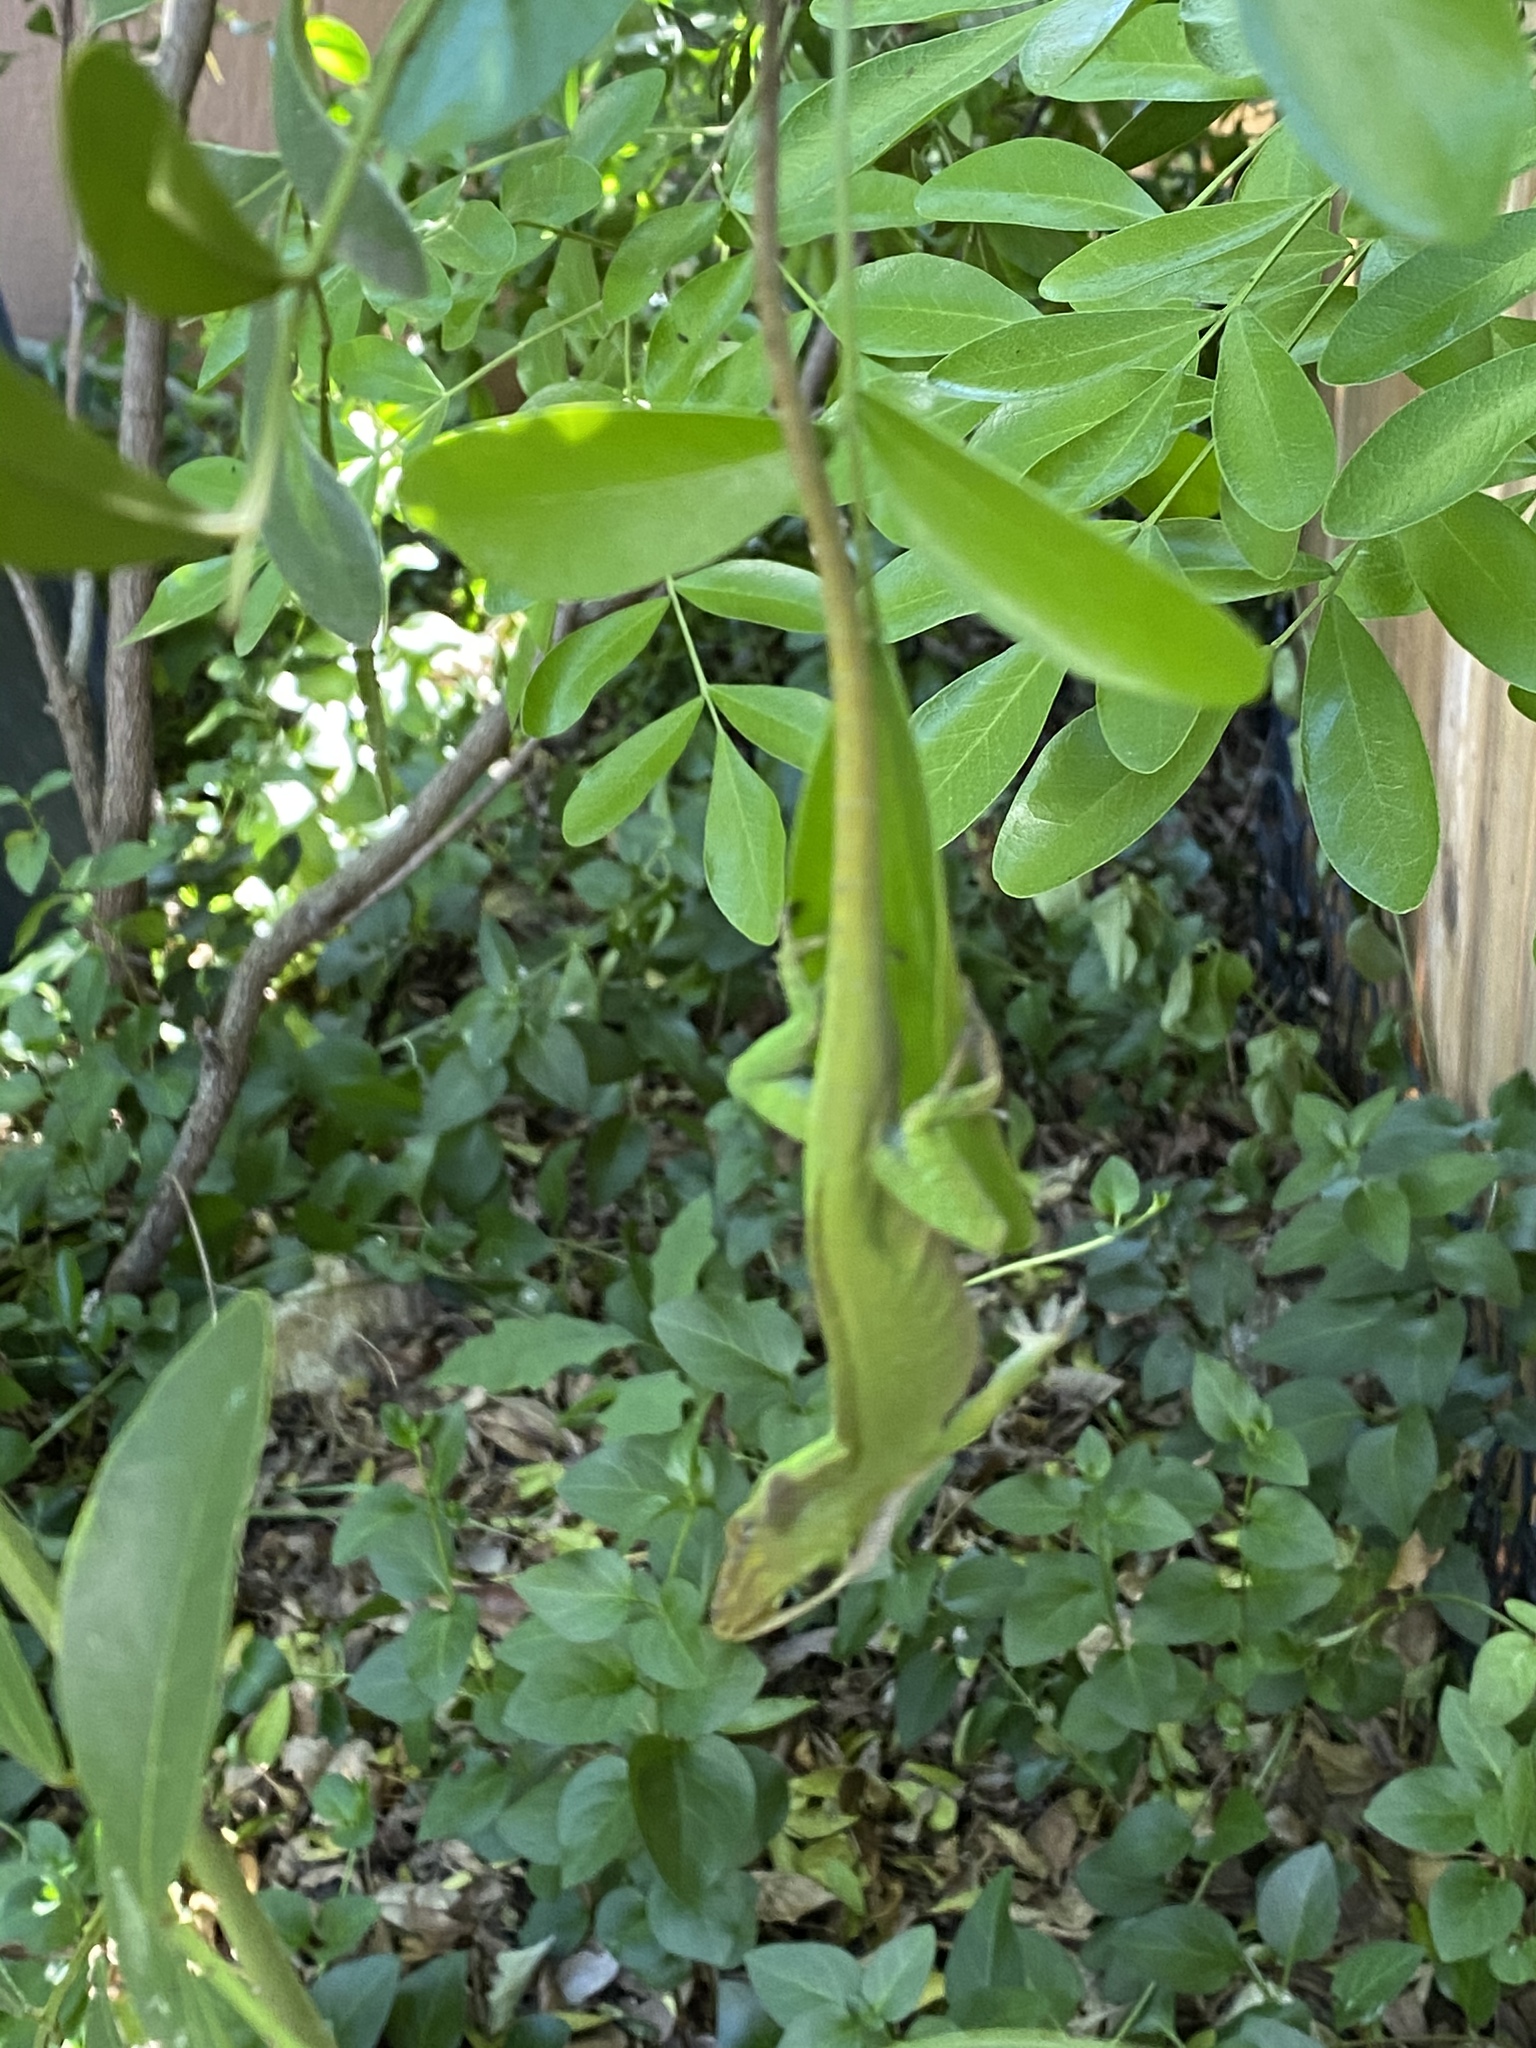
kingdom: Animalia
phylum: Chordata
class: Squamata
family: Dactyloidae
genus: Anolis
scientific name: Anolis carolinensis
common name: Green anole
